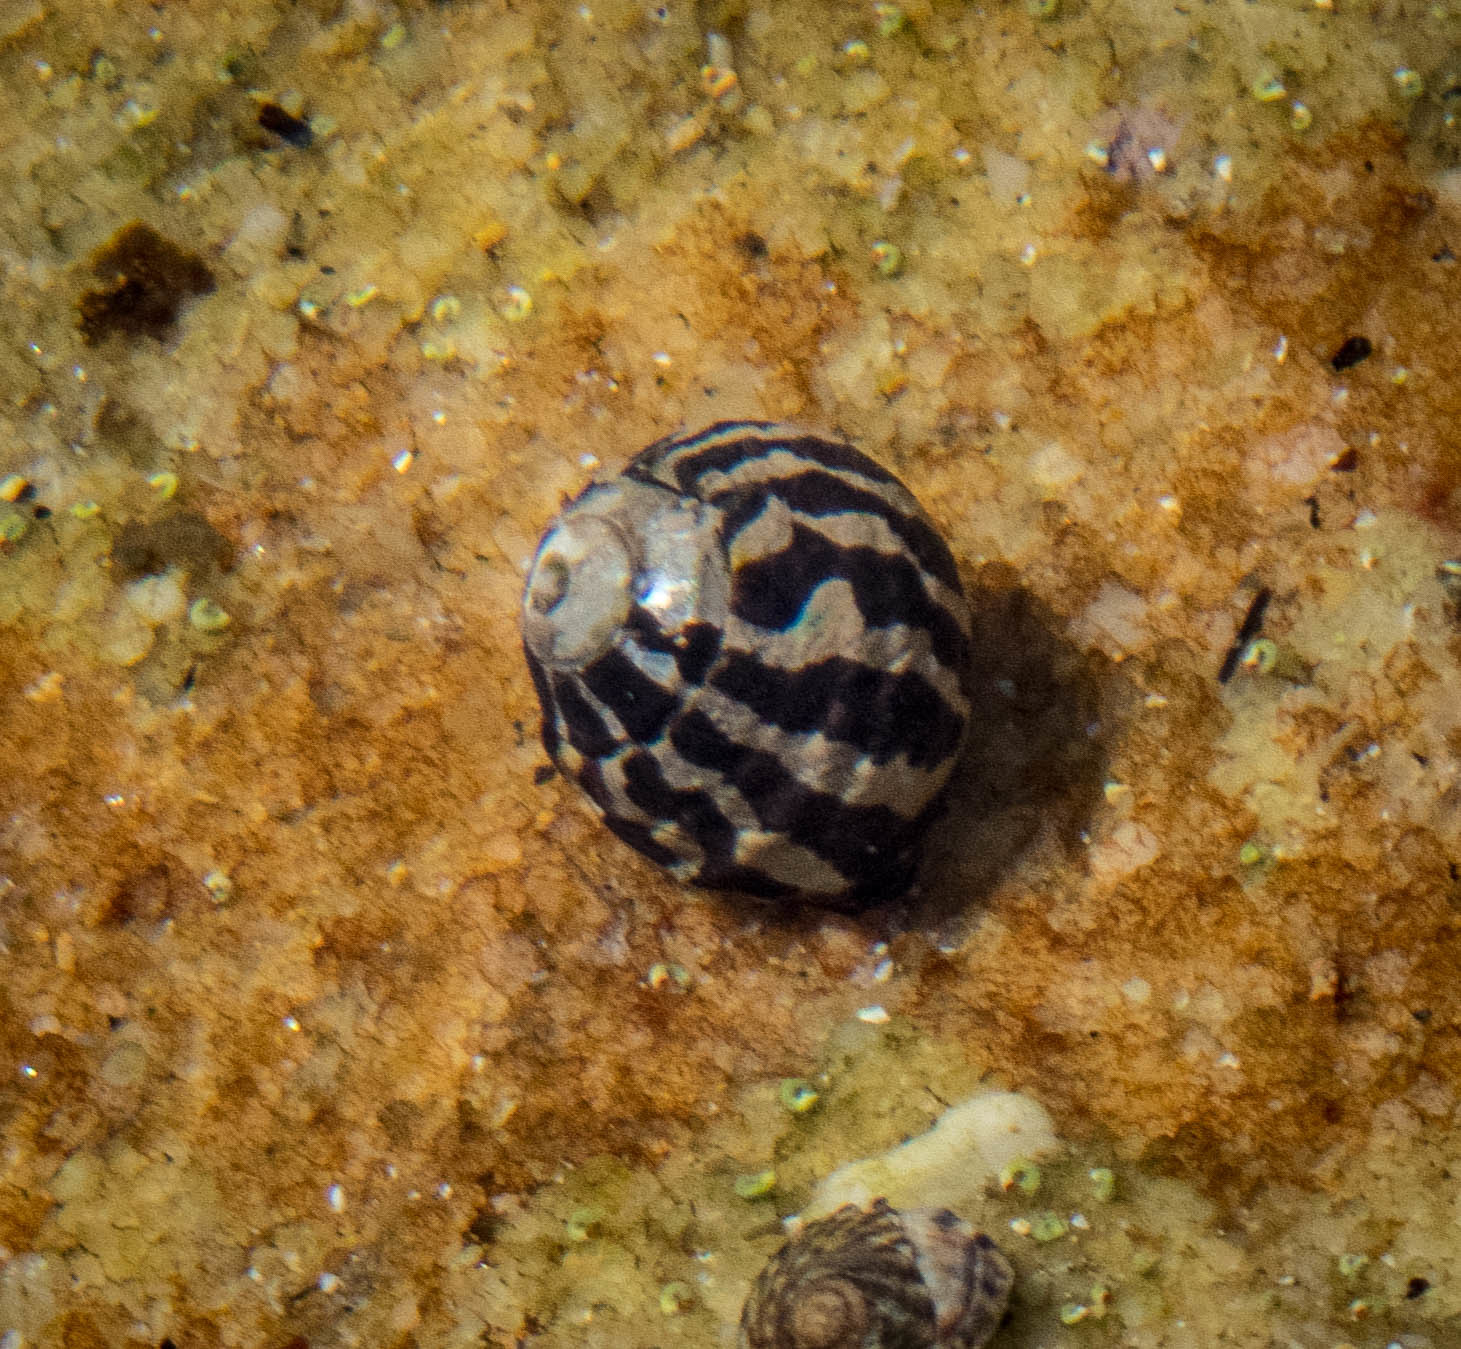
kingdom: Animalia
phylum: Mollusca
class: Gastropoda
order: Trochida
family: Trochidae
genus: Austrocochlea
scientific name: Austrocochlea porcata
